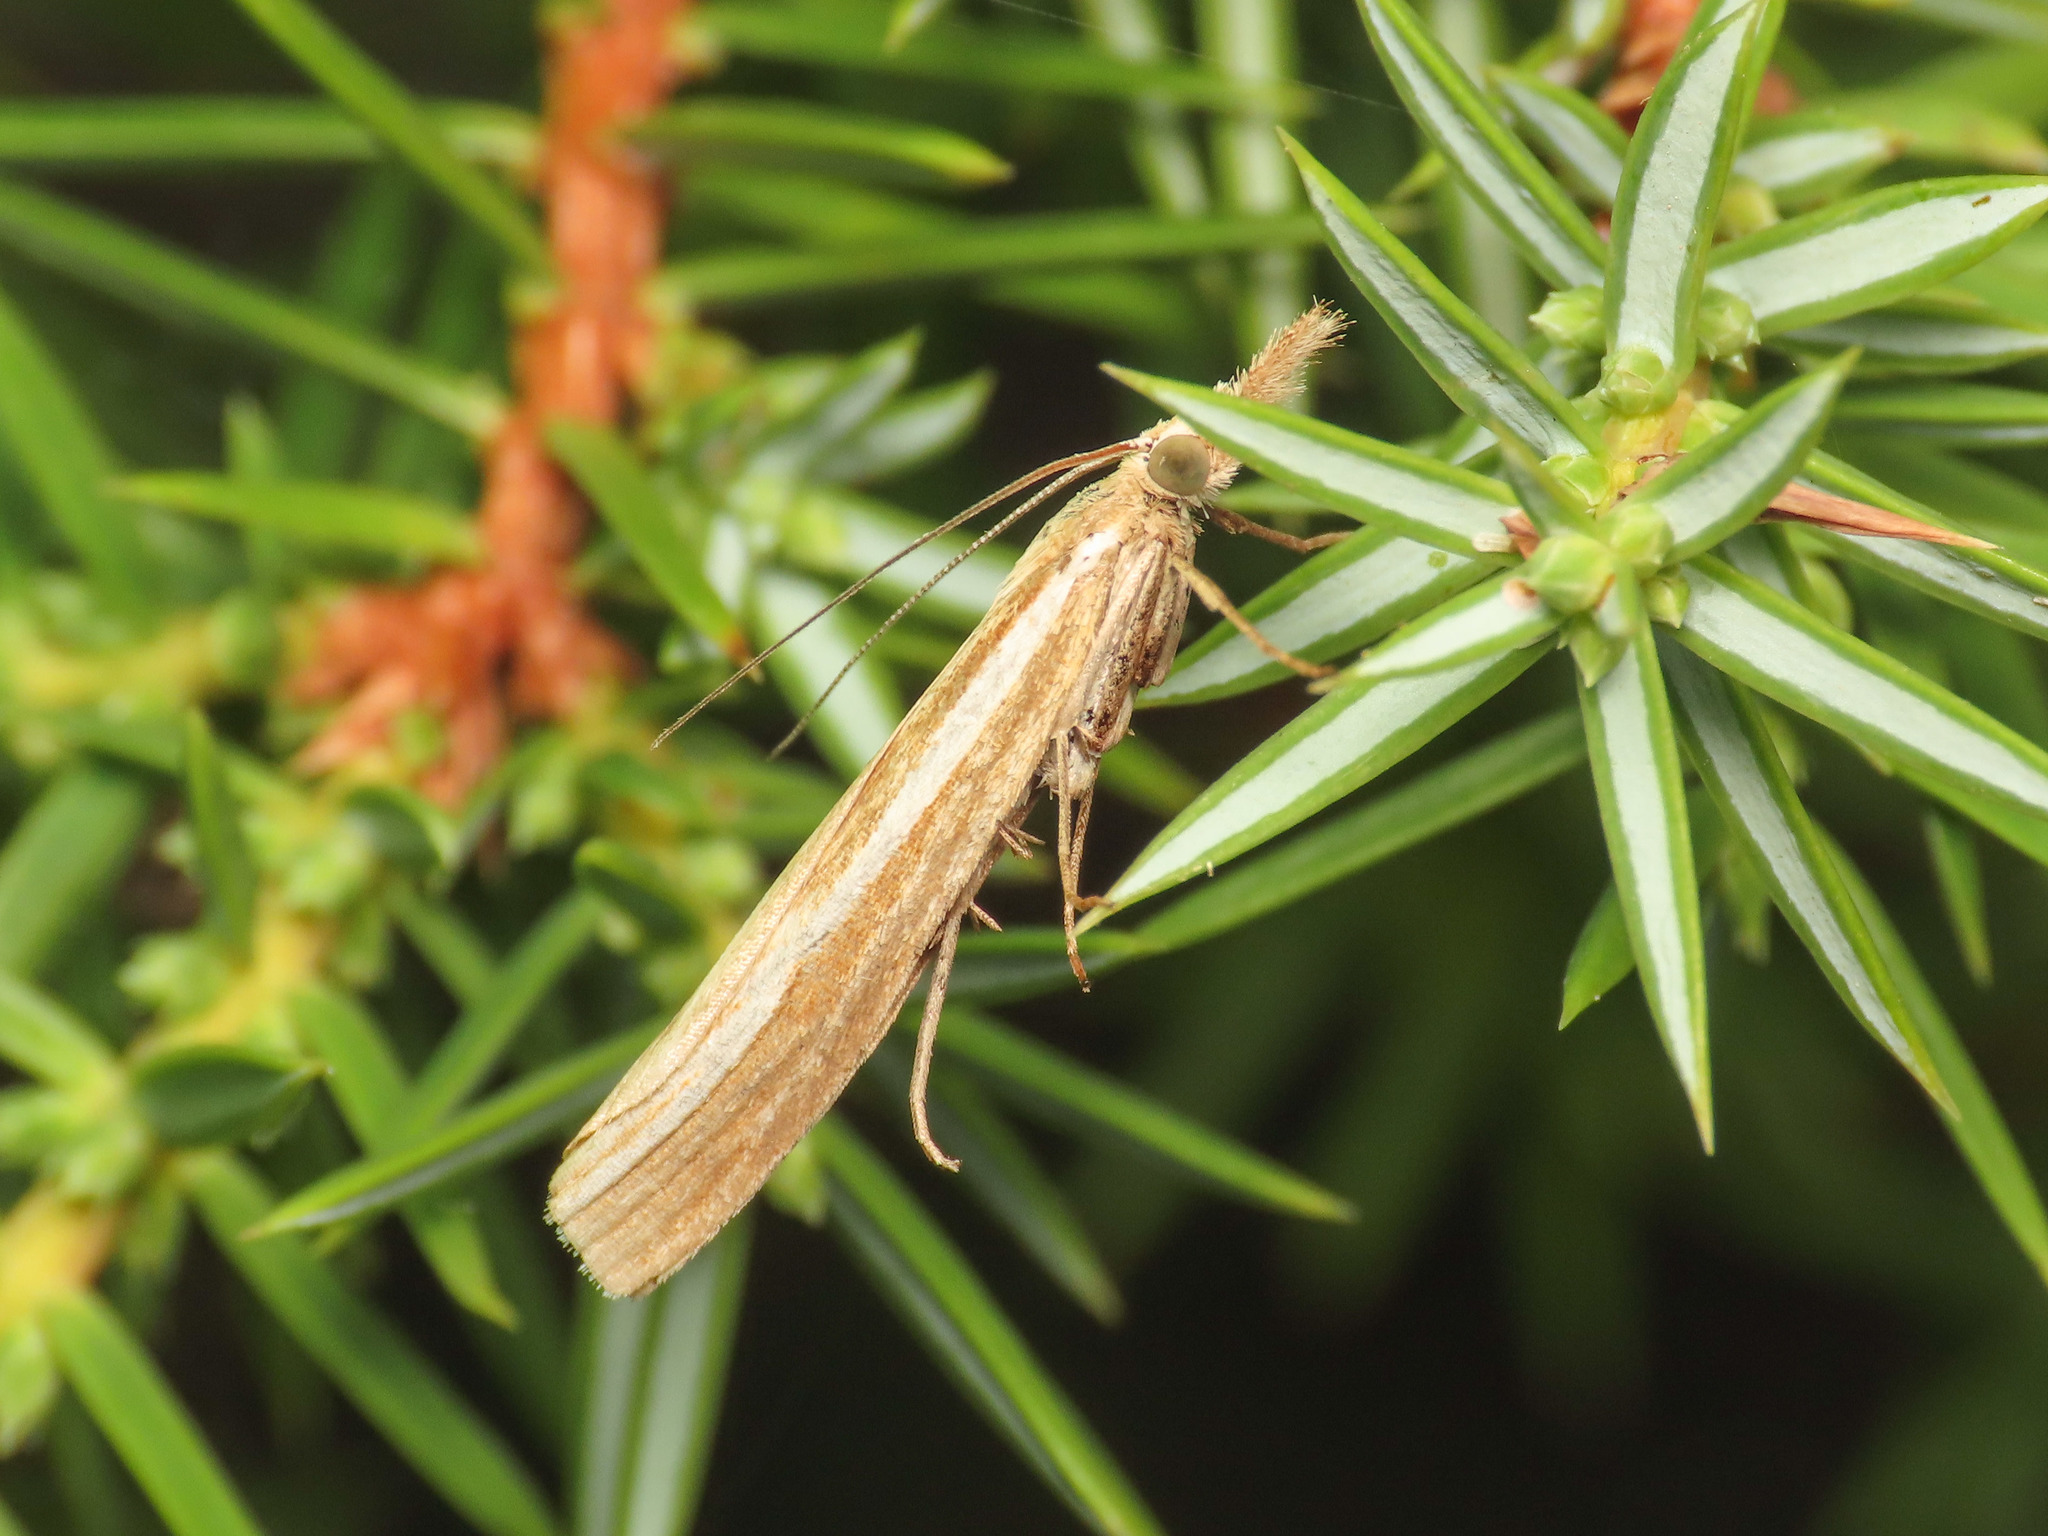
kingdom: Animalia
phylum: Arthropoda
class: Insecta
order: Lepidoptera
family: Crambidae
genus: Agriphila
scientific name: Agriphila tristellus
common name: Common grass-veneer
